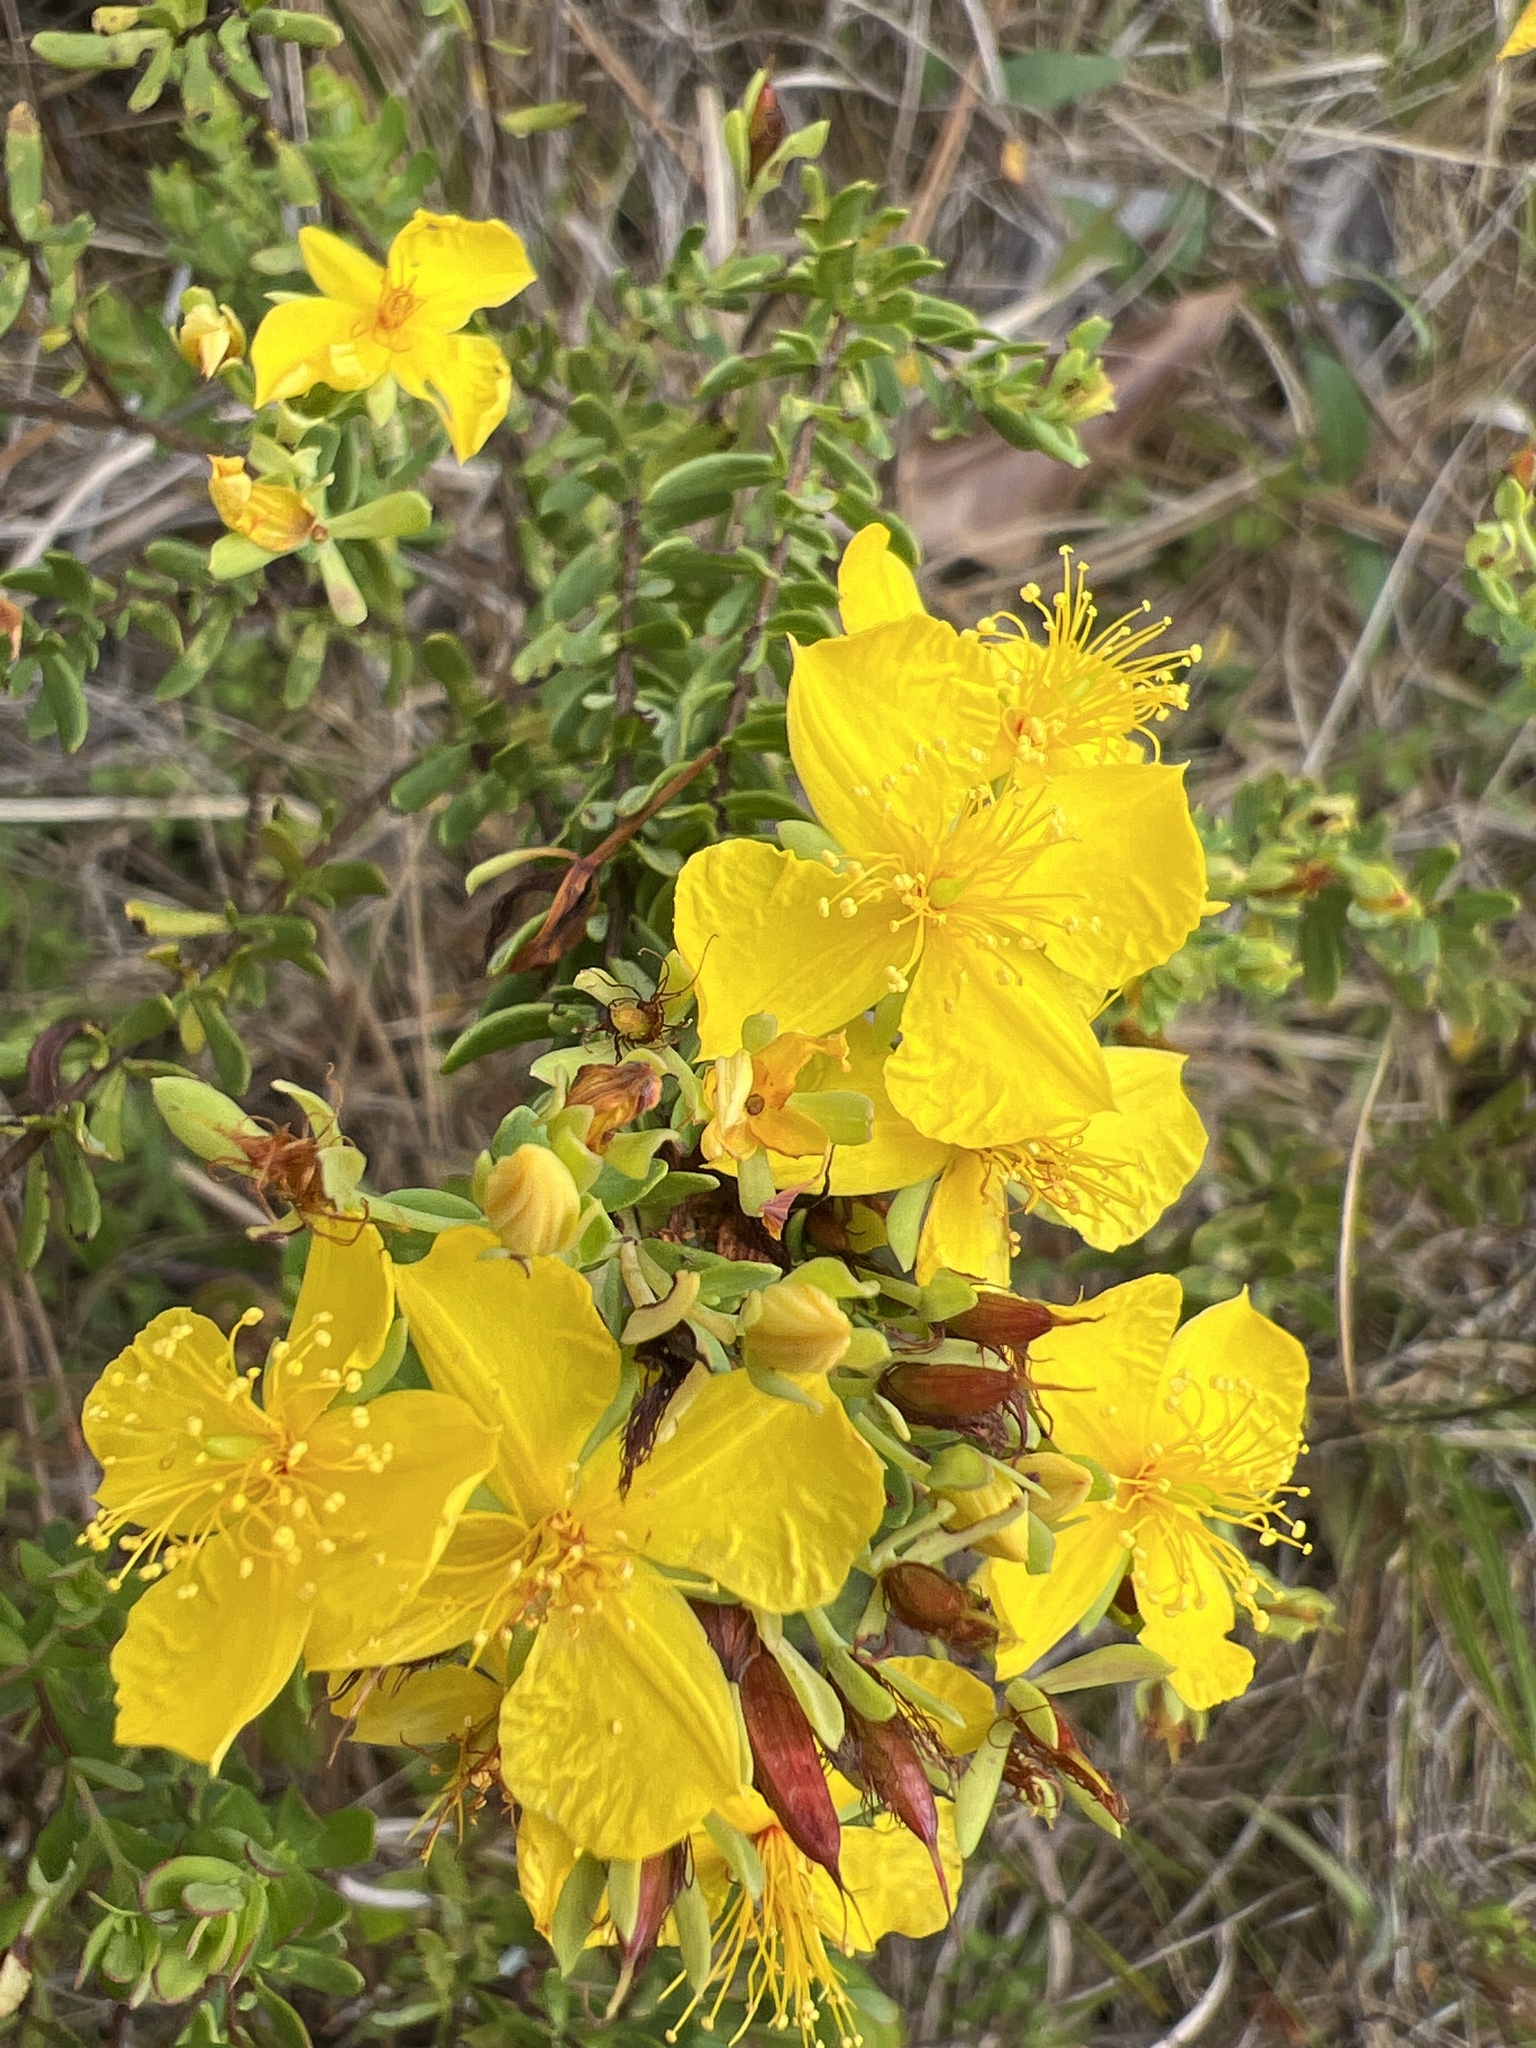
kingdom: Plantae
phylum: Tracheophyta
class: Magnoliopsida
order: Malpighiales
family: Hypericaceae
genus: Hypericum
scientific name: Hypericum microsepalum
